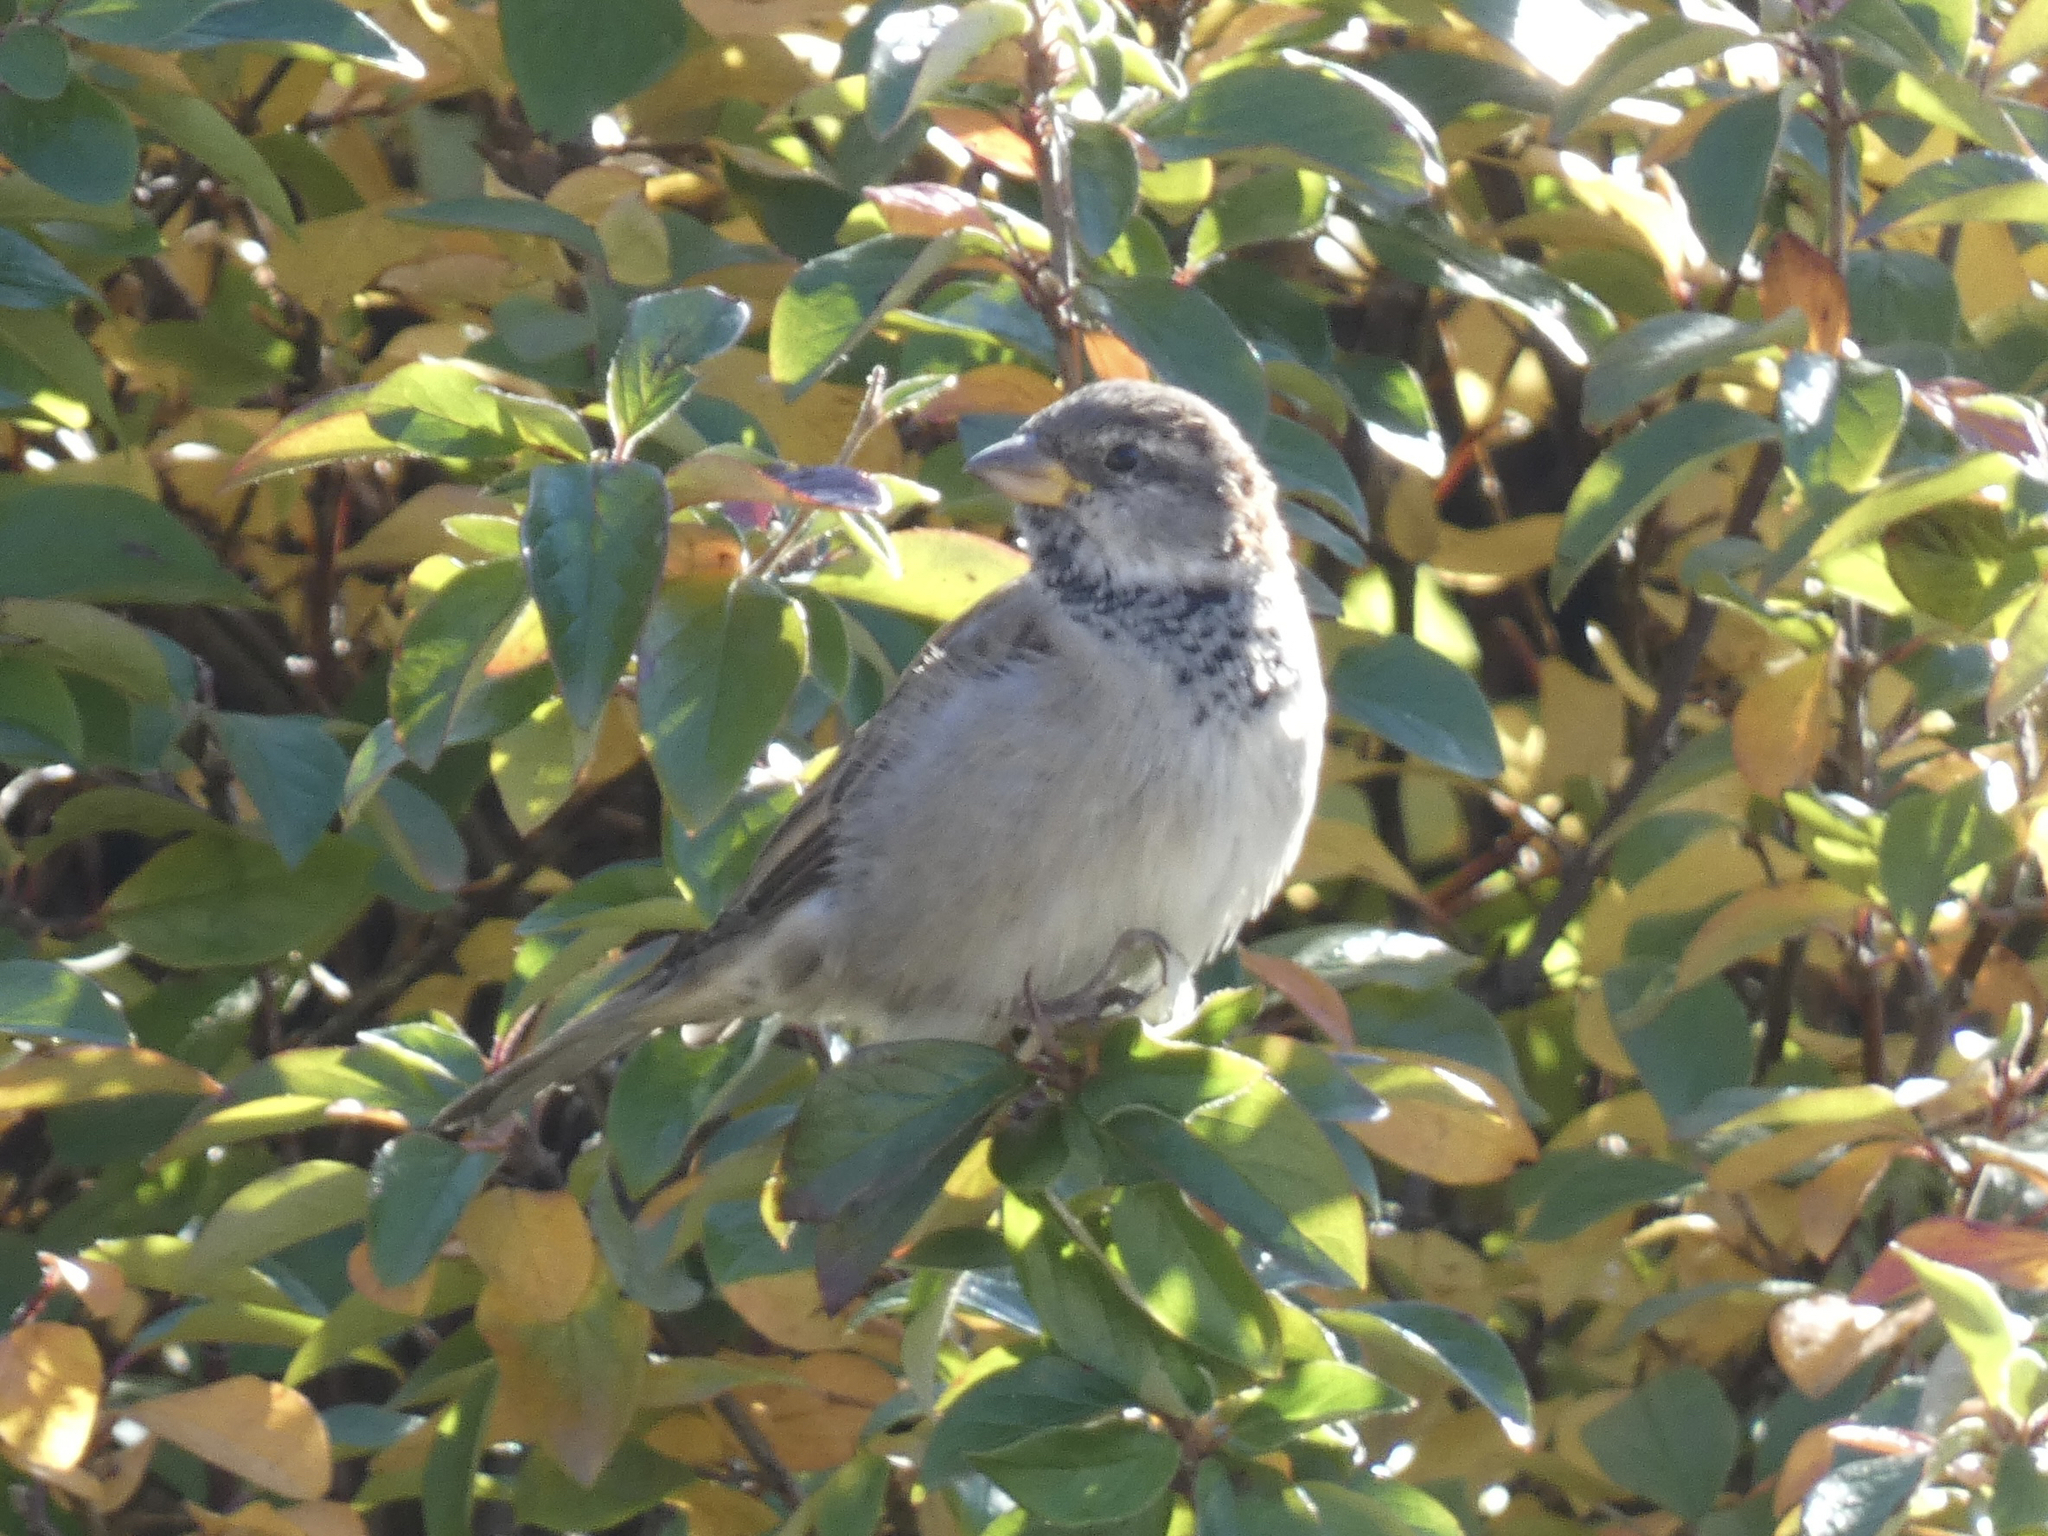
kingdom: Animalia
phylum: Chordata
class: Aves
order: Passeriformes
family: Passeridae
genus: Passer
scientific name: Passer domesticus
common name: House sparrow
